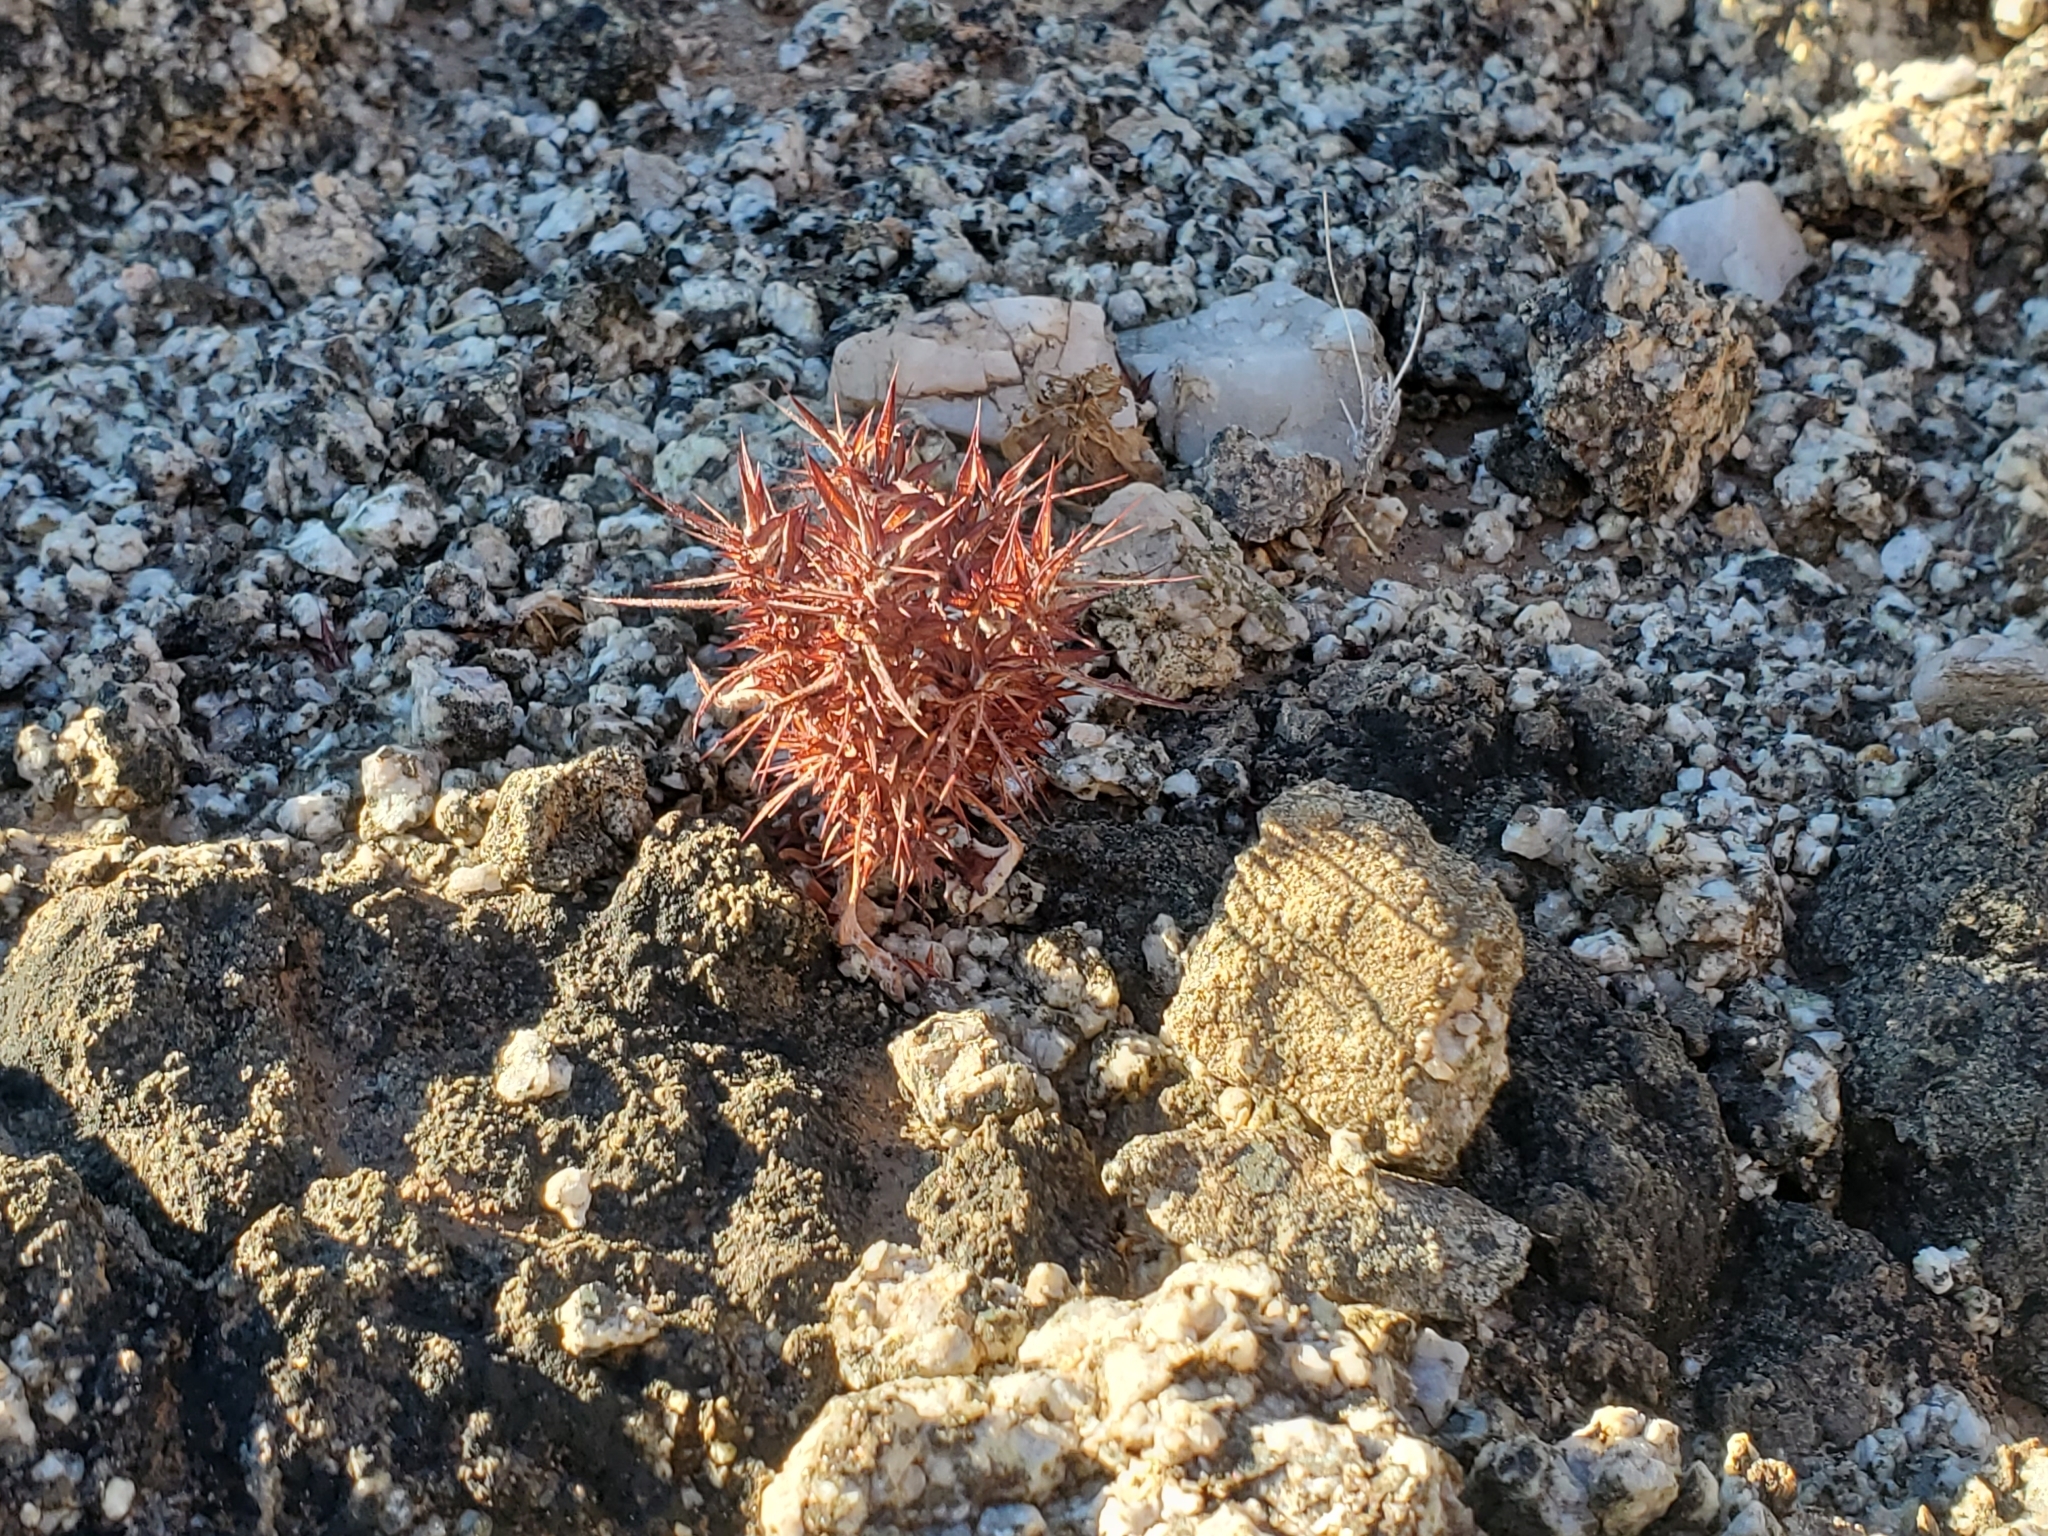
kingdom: Plantae
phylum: Tracheophyta
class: Magnoliopsida
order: Caryophyllales
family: Polygonaceae
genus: Chorizanthe
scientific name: Chorizanthe rigida
